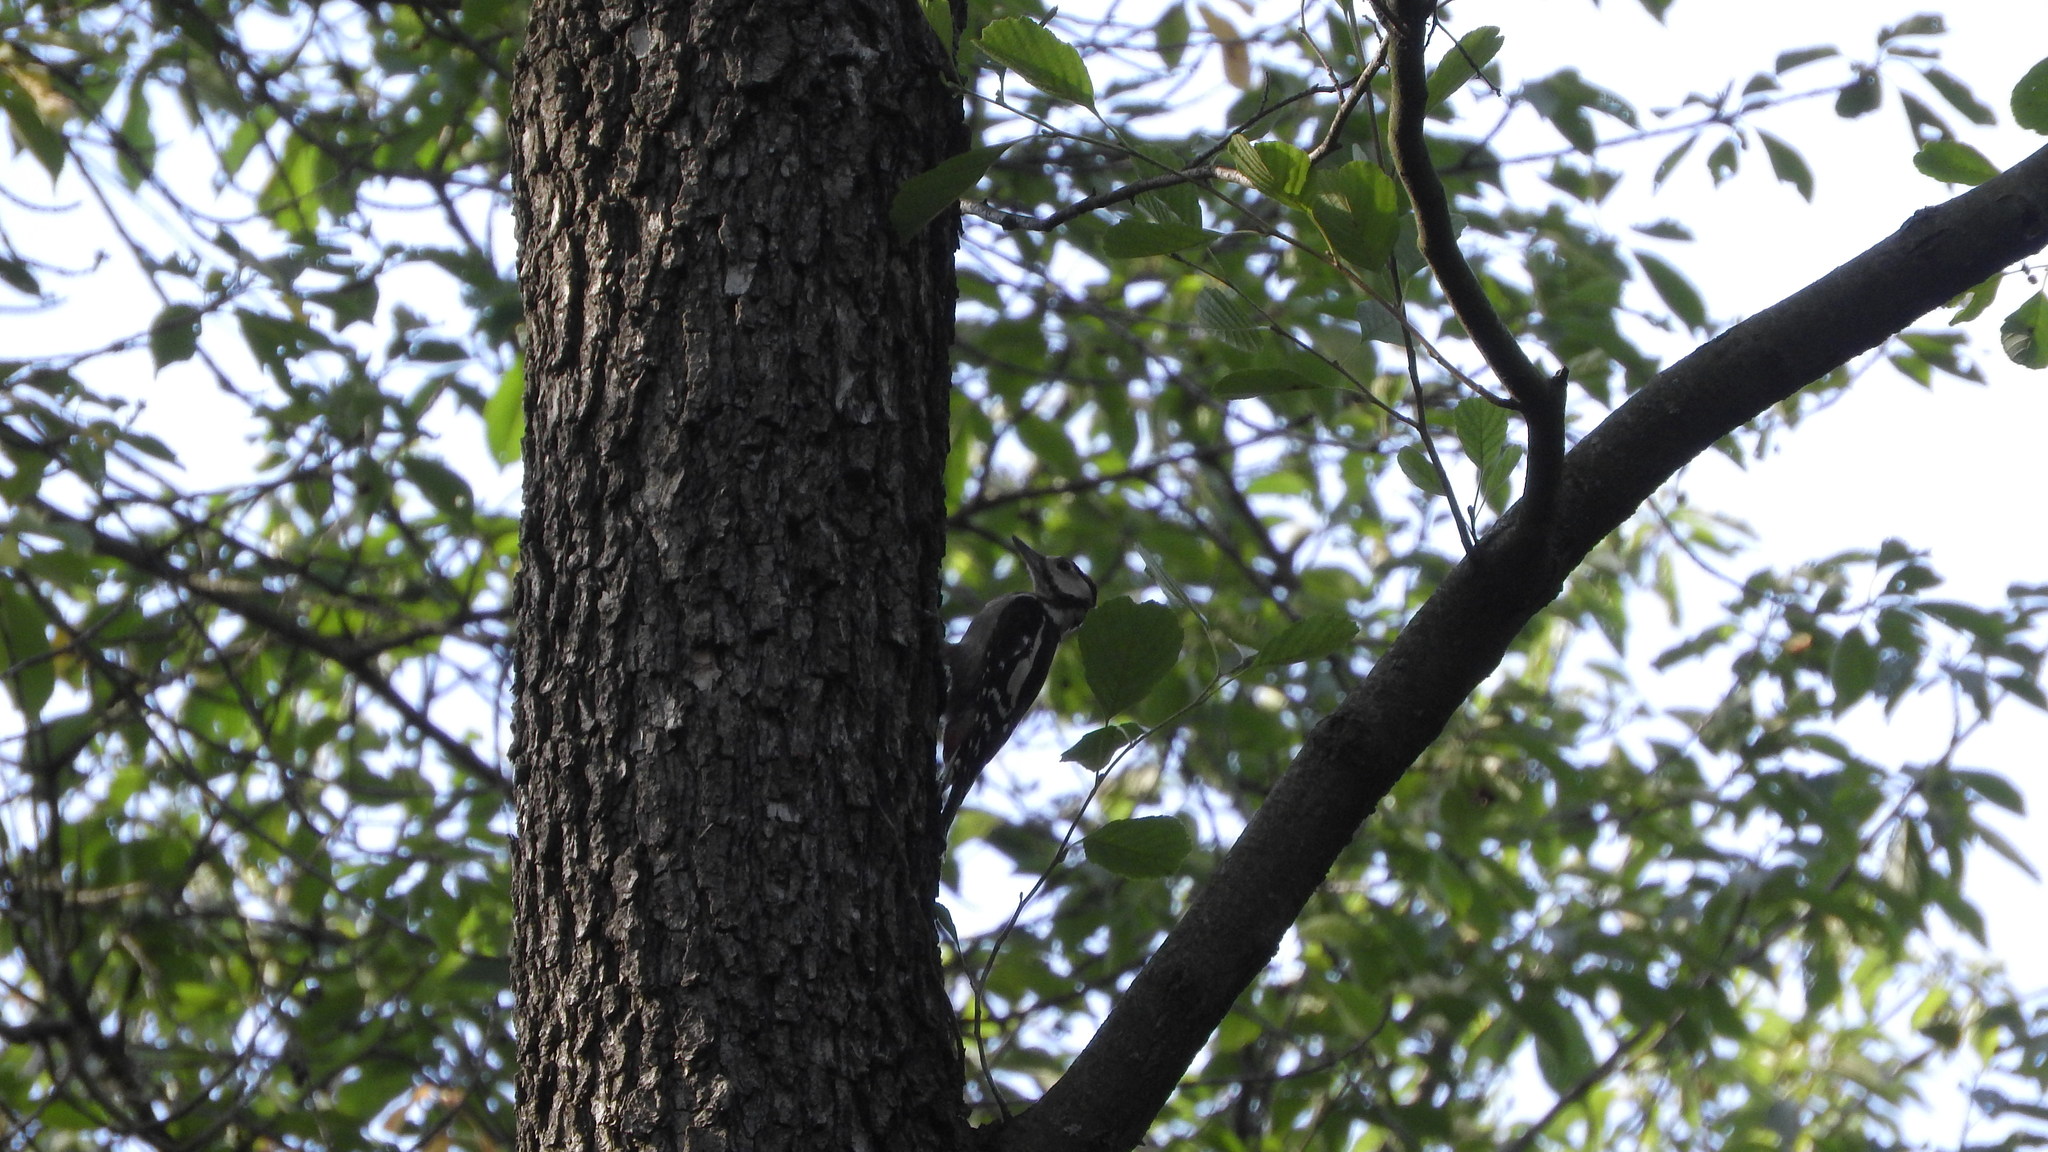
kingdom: Animalia
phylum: Chordata
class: Aves
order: Piciformes
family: Picidae
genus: Dendrocopos
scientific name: Dendrocopos major
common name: Great spotted woodpecker
